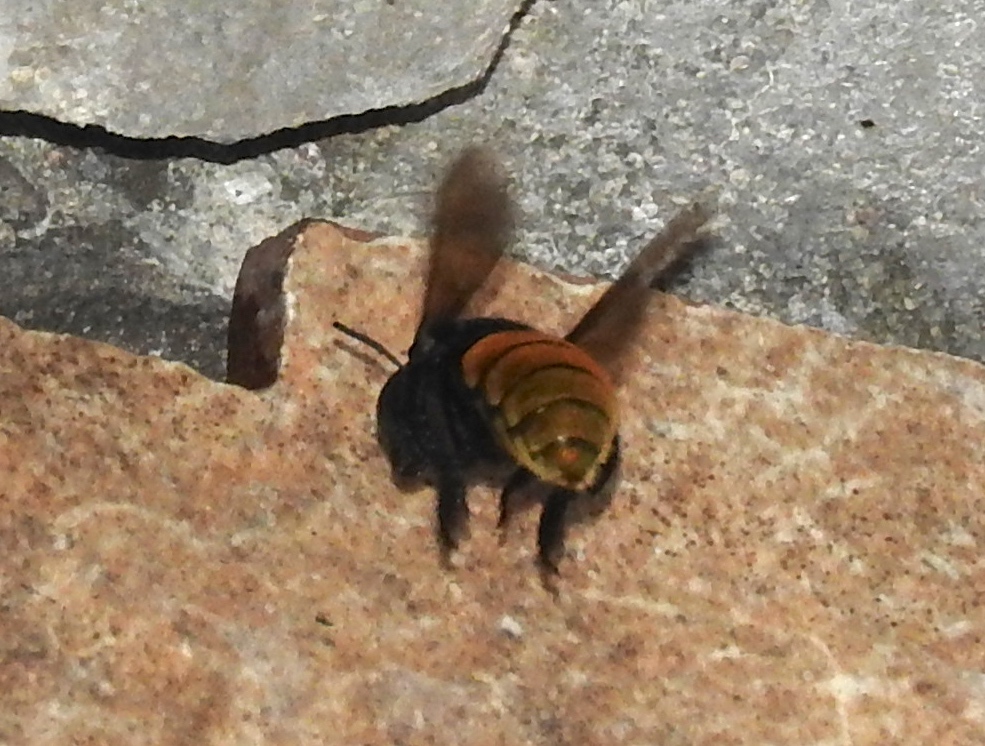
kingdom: Animalia
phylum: Arthropoda
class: Insecta
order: Hymenoptera
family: Apidae
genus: Eulaema
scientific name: Eulaema polychroma
